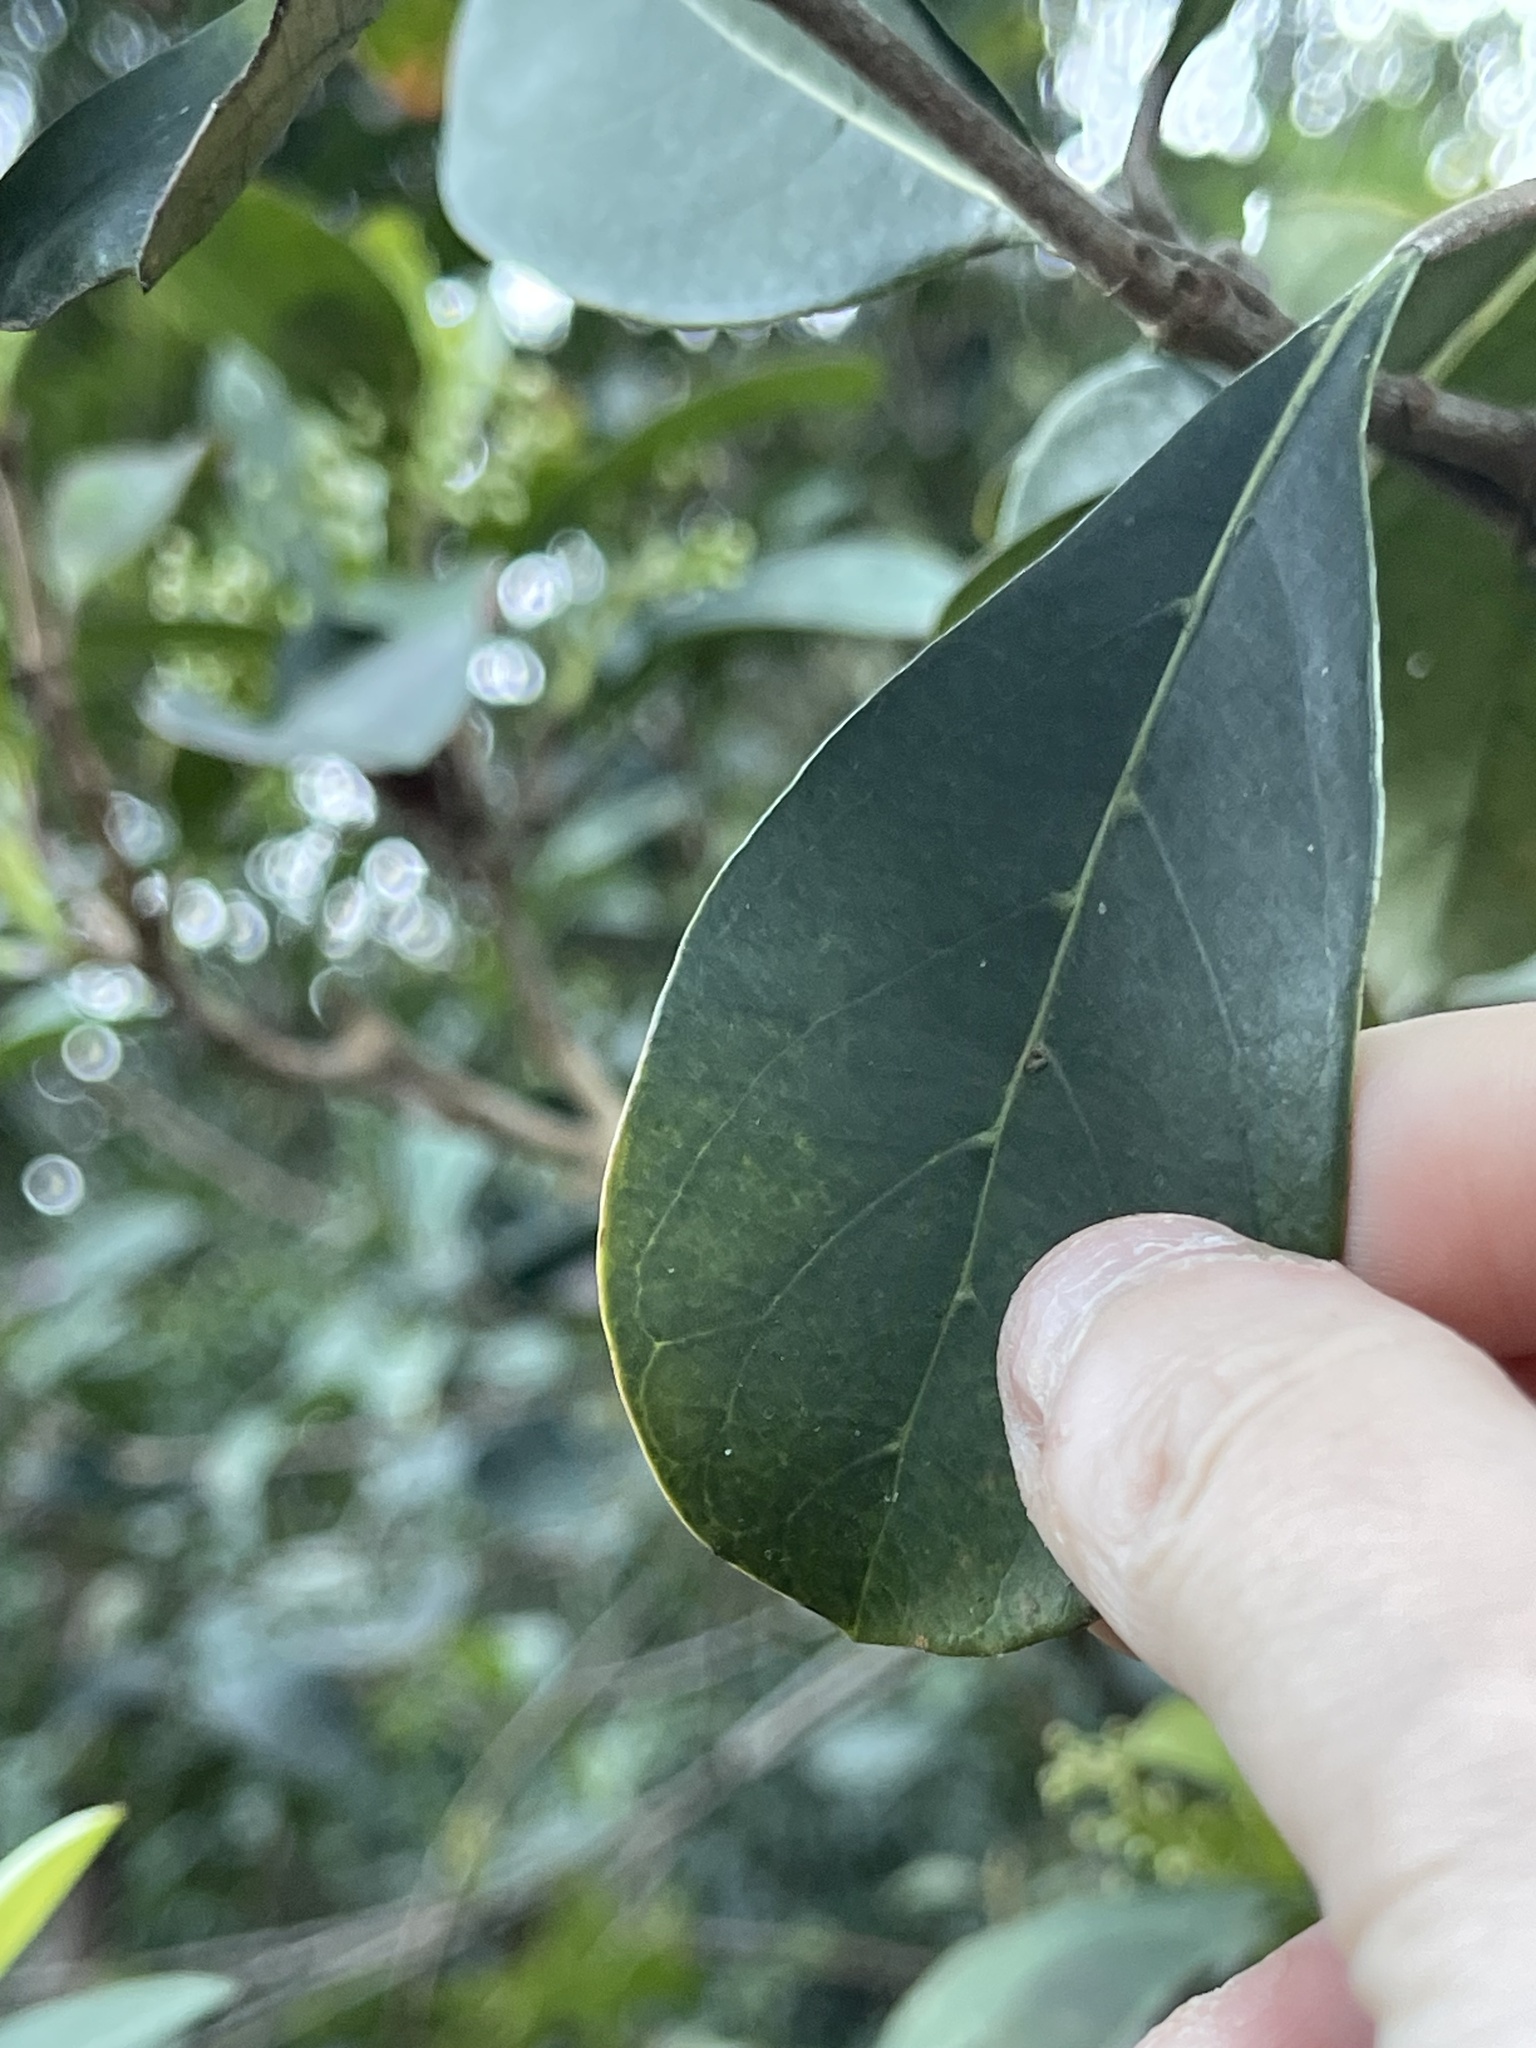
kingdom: Plantae
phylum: Tracheophyta
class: Magnoliopsida
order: Dipsacales
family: Viburnaceae
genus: Viburnum
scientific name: Viburnum odoratissimum
